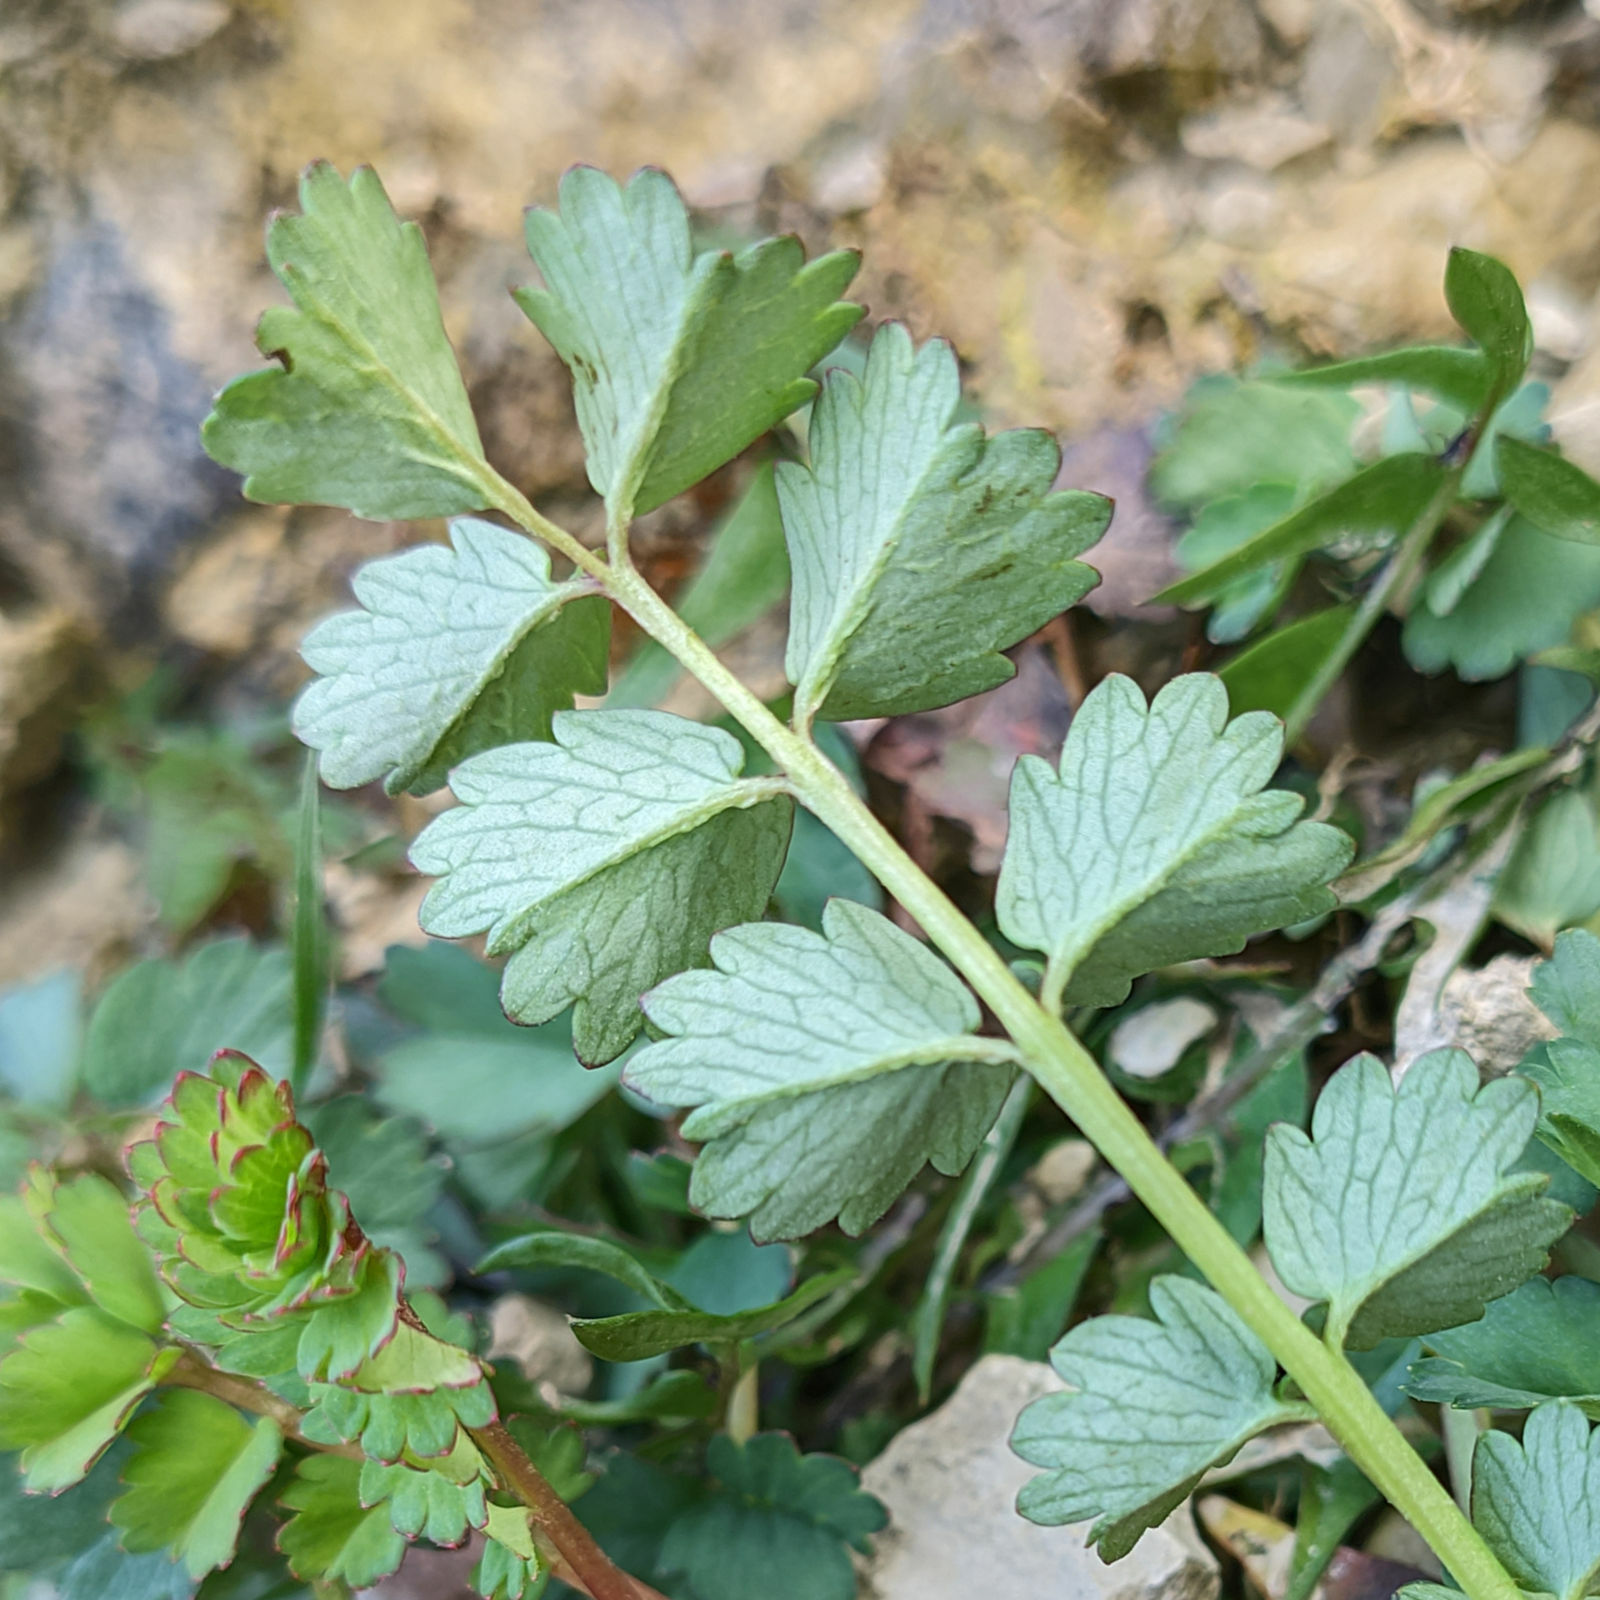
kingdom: Plantae
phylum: Tracheophyta
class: Magnoliopsida
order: Rosales
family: Rosaceae
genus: Poterium
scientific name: Poterium sanguisorba
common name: Salad burnet
